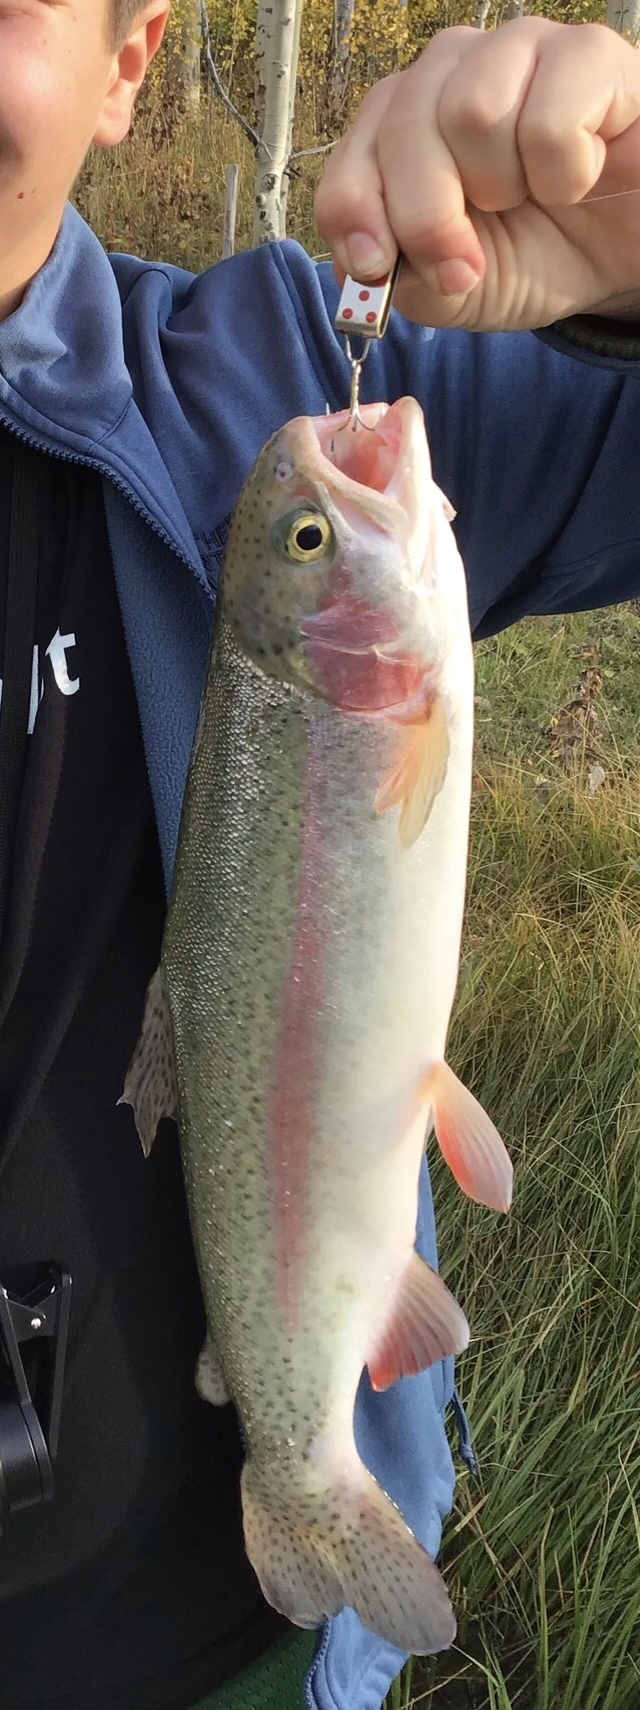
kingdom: Animalia
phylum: Chordata
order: Salmoniformes
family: Salmonidae
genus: Oncorhynchus
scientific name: Oncorhynchus mykiss
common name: Rainbow trout
